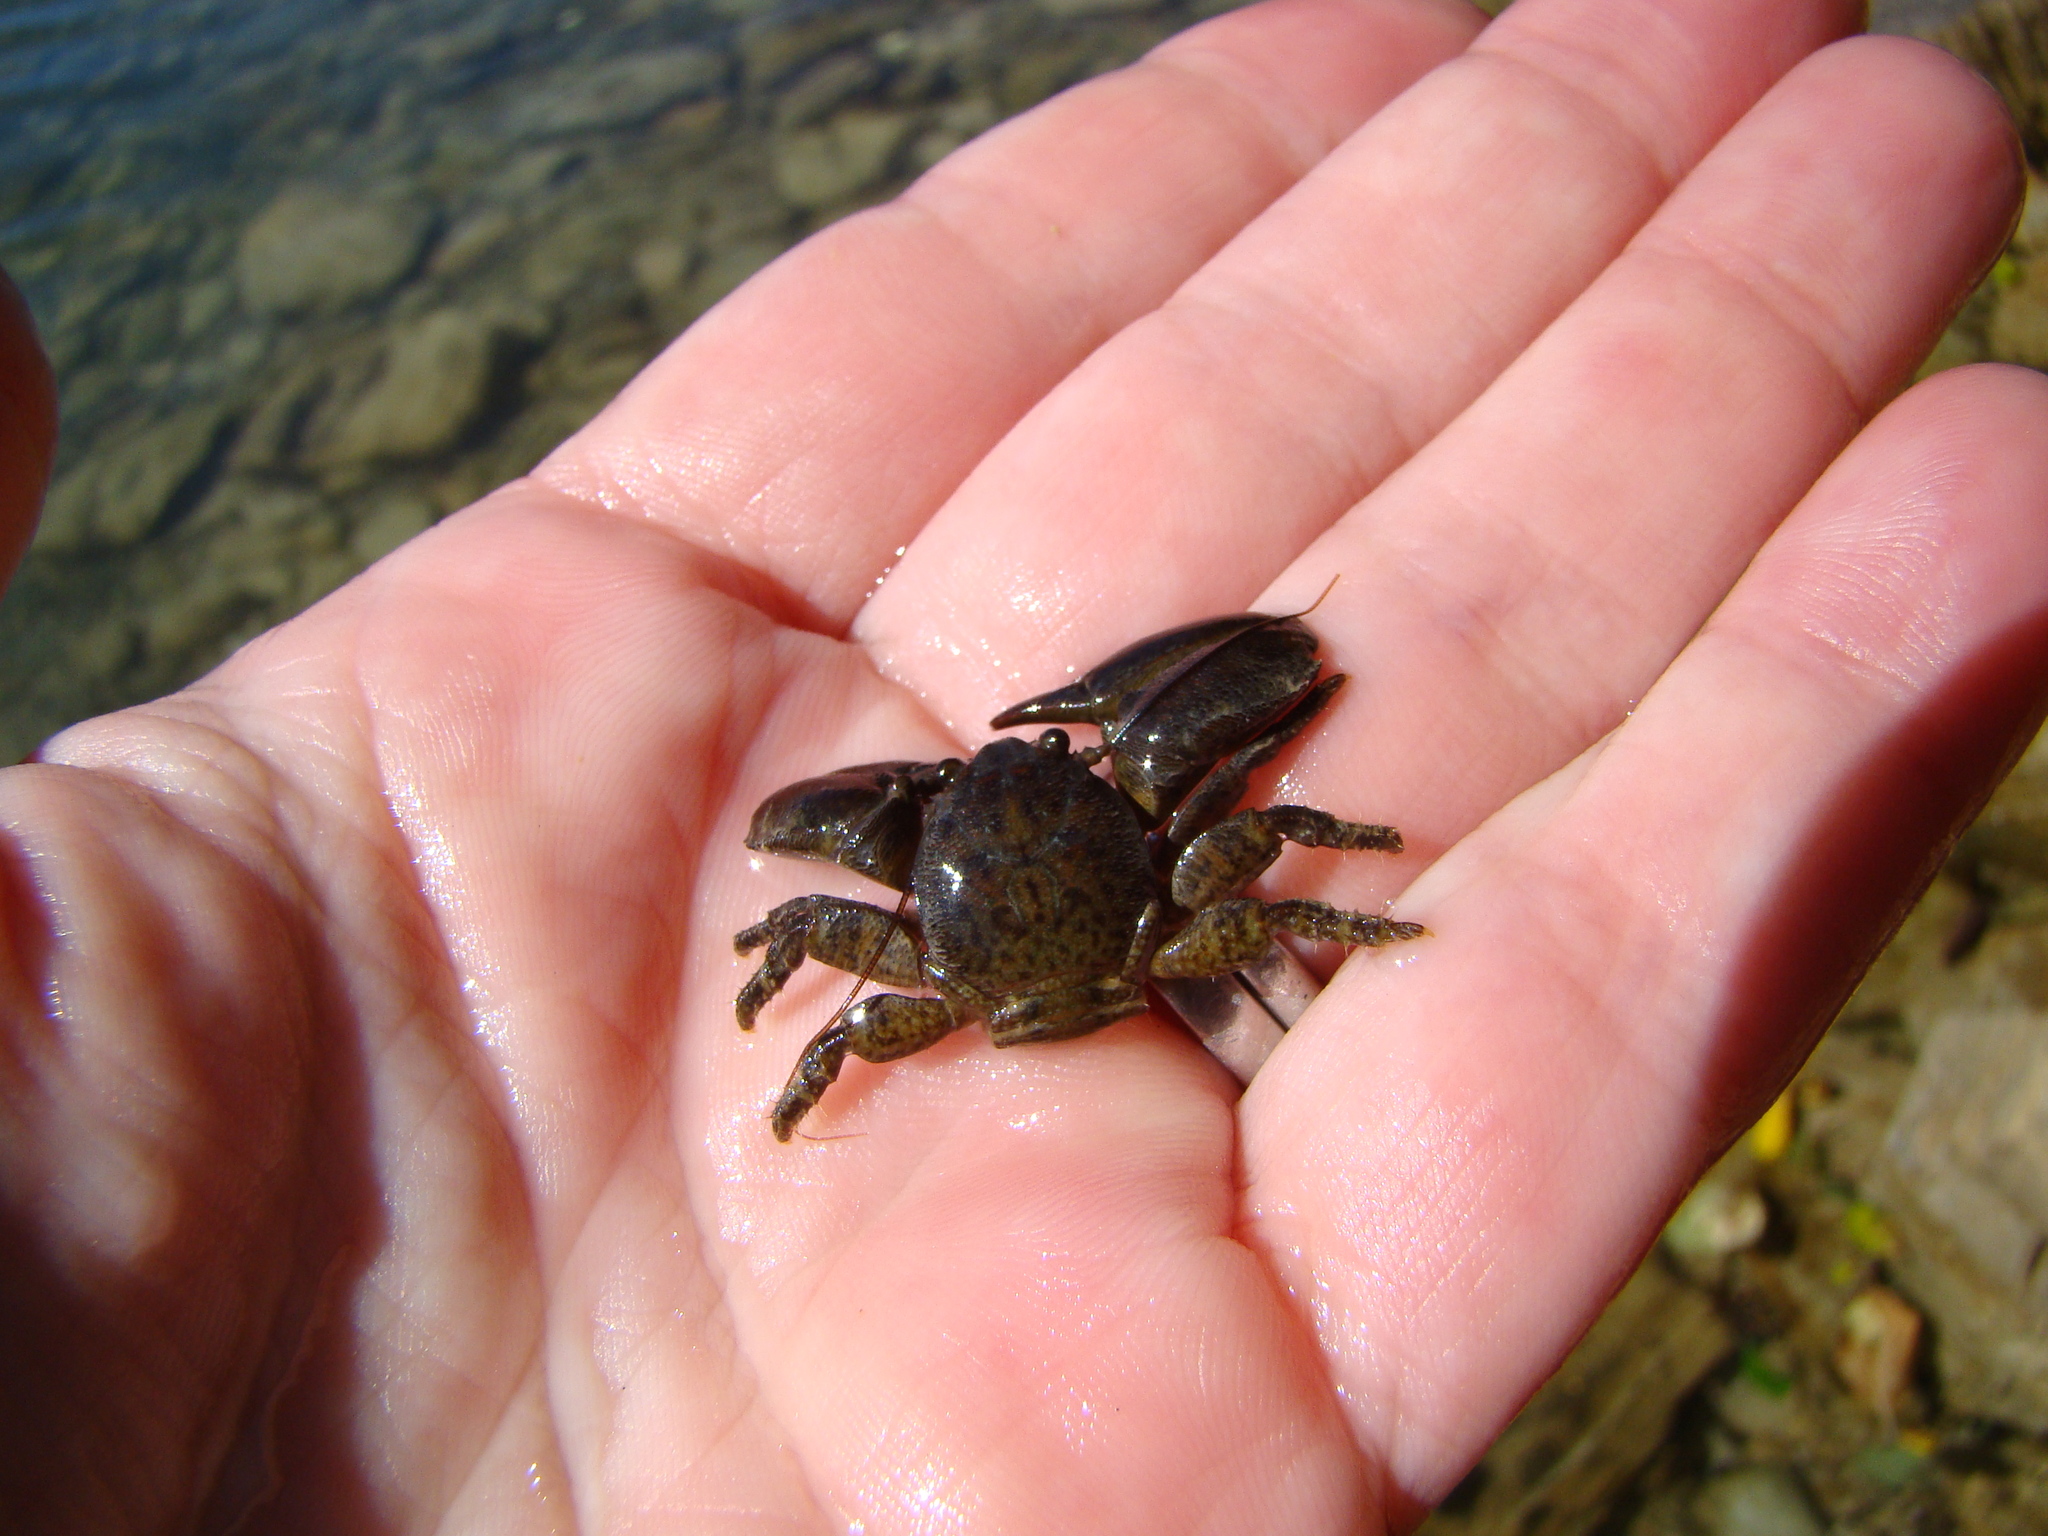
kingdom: Animalia
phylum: Arthropoda
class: Malacostraca
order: Decapoda
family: Porcellanidae
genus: Petrolisthes
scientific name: Petrolisthes elongatus
